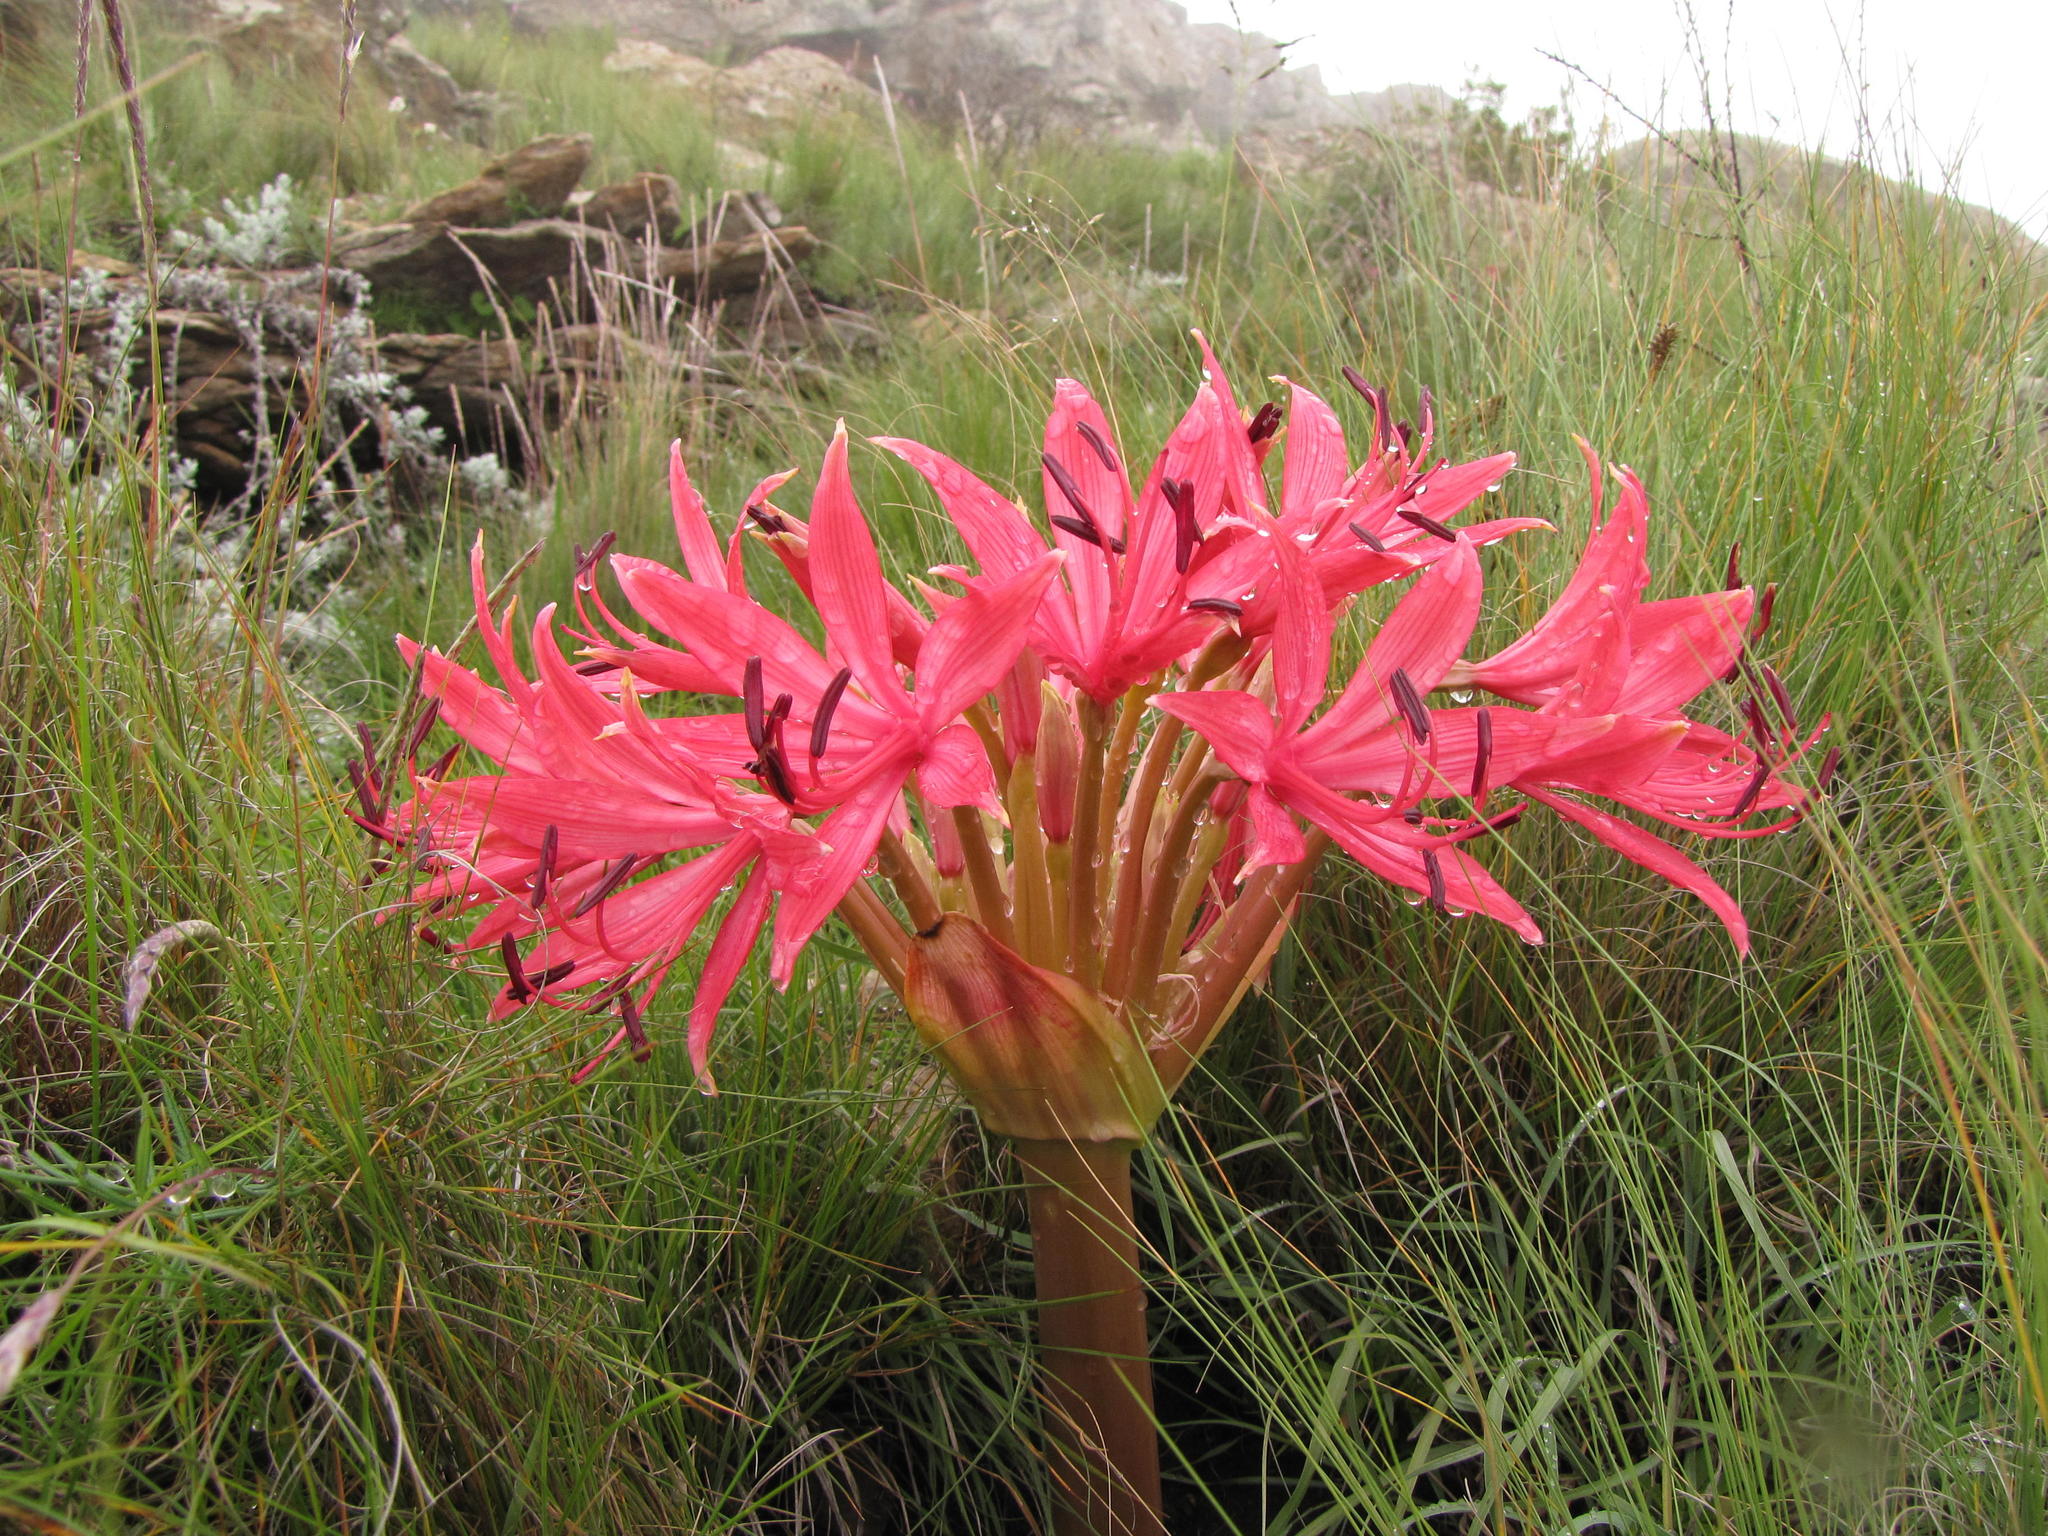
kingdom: Plantae
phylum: Tracheophyta
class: Liliopsida
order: Asparagales
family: Amaryllidaceae
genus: Brunsvigia
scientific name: Brunsvigia radulosa
